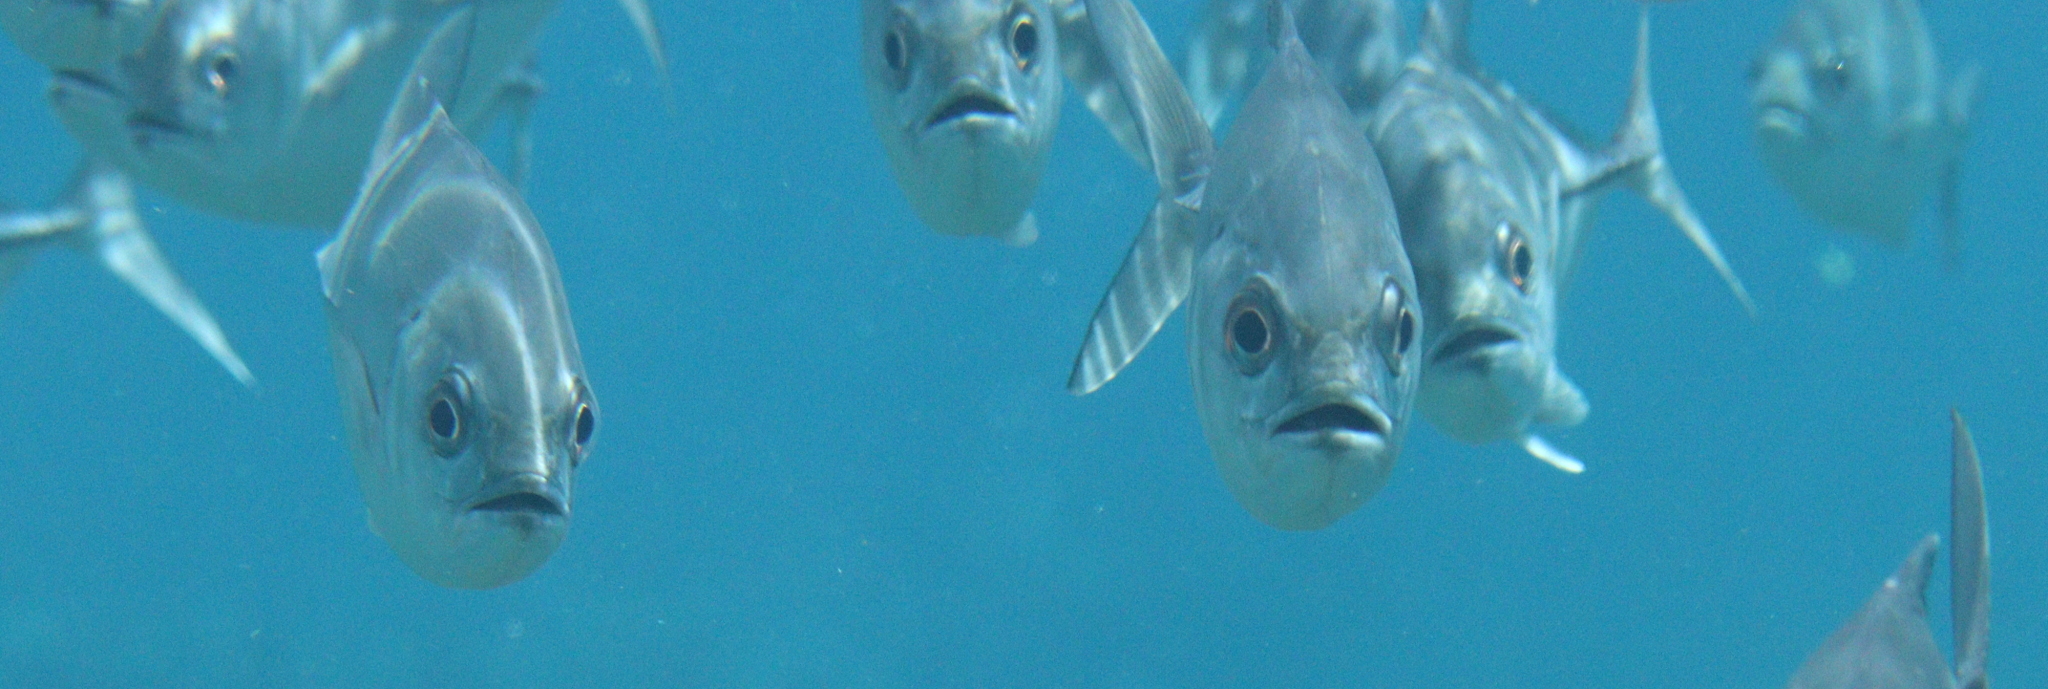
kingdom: Animalia
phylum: Chordata
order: Perciformes
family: Carangidae
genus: Caranx
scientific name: Caranx sexfasciatus
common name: Bigeye trevally
